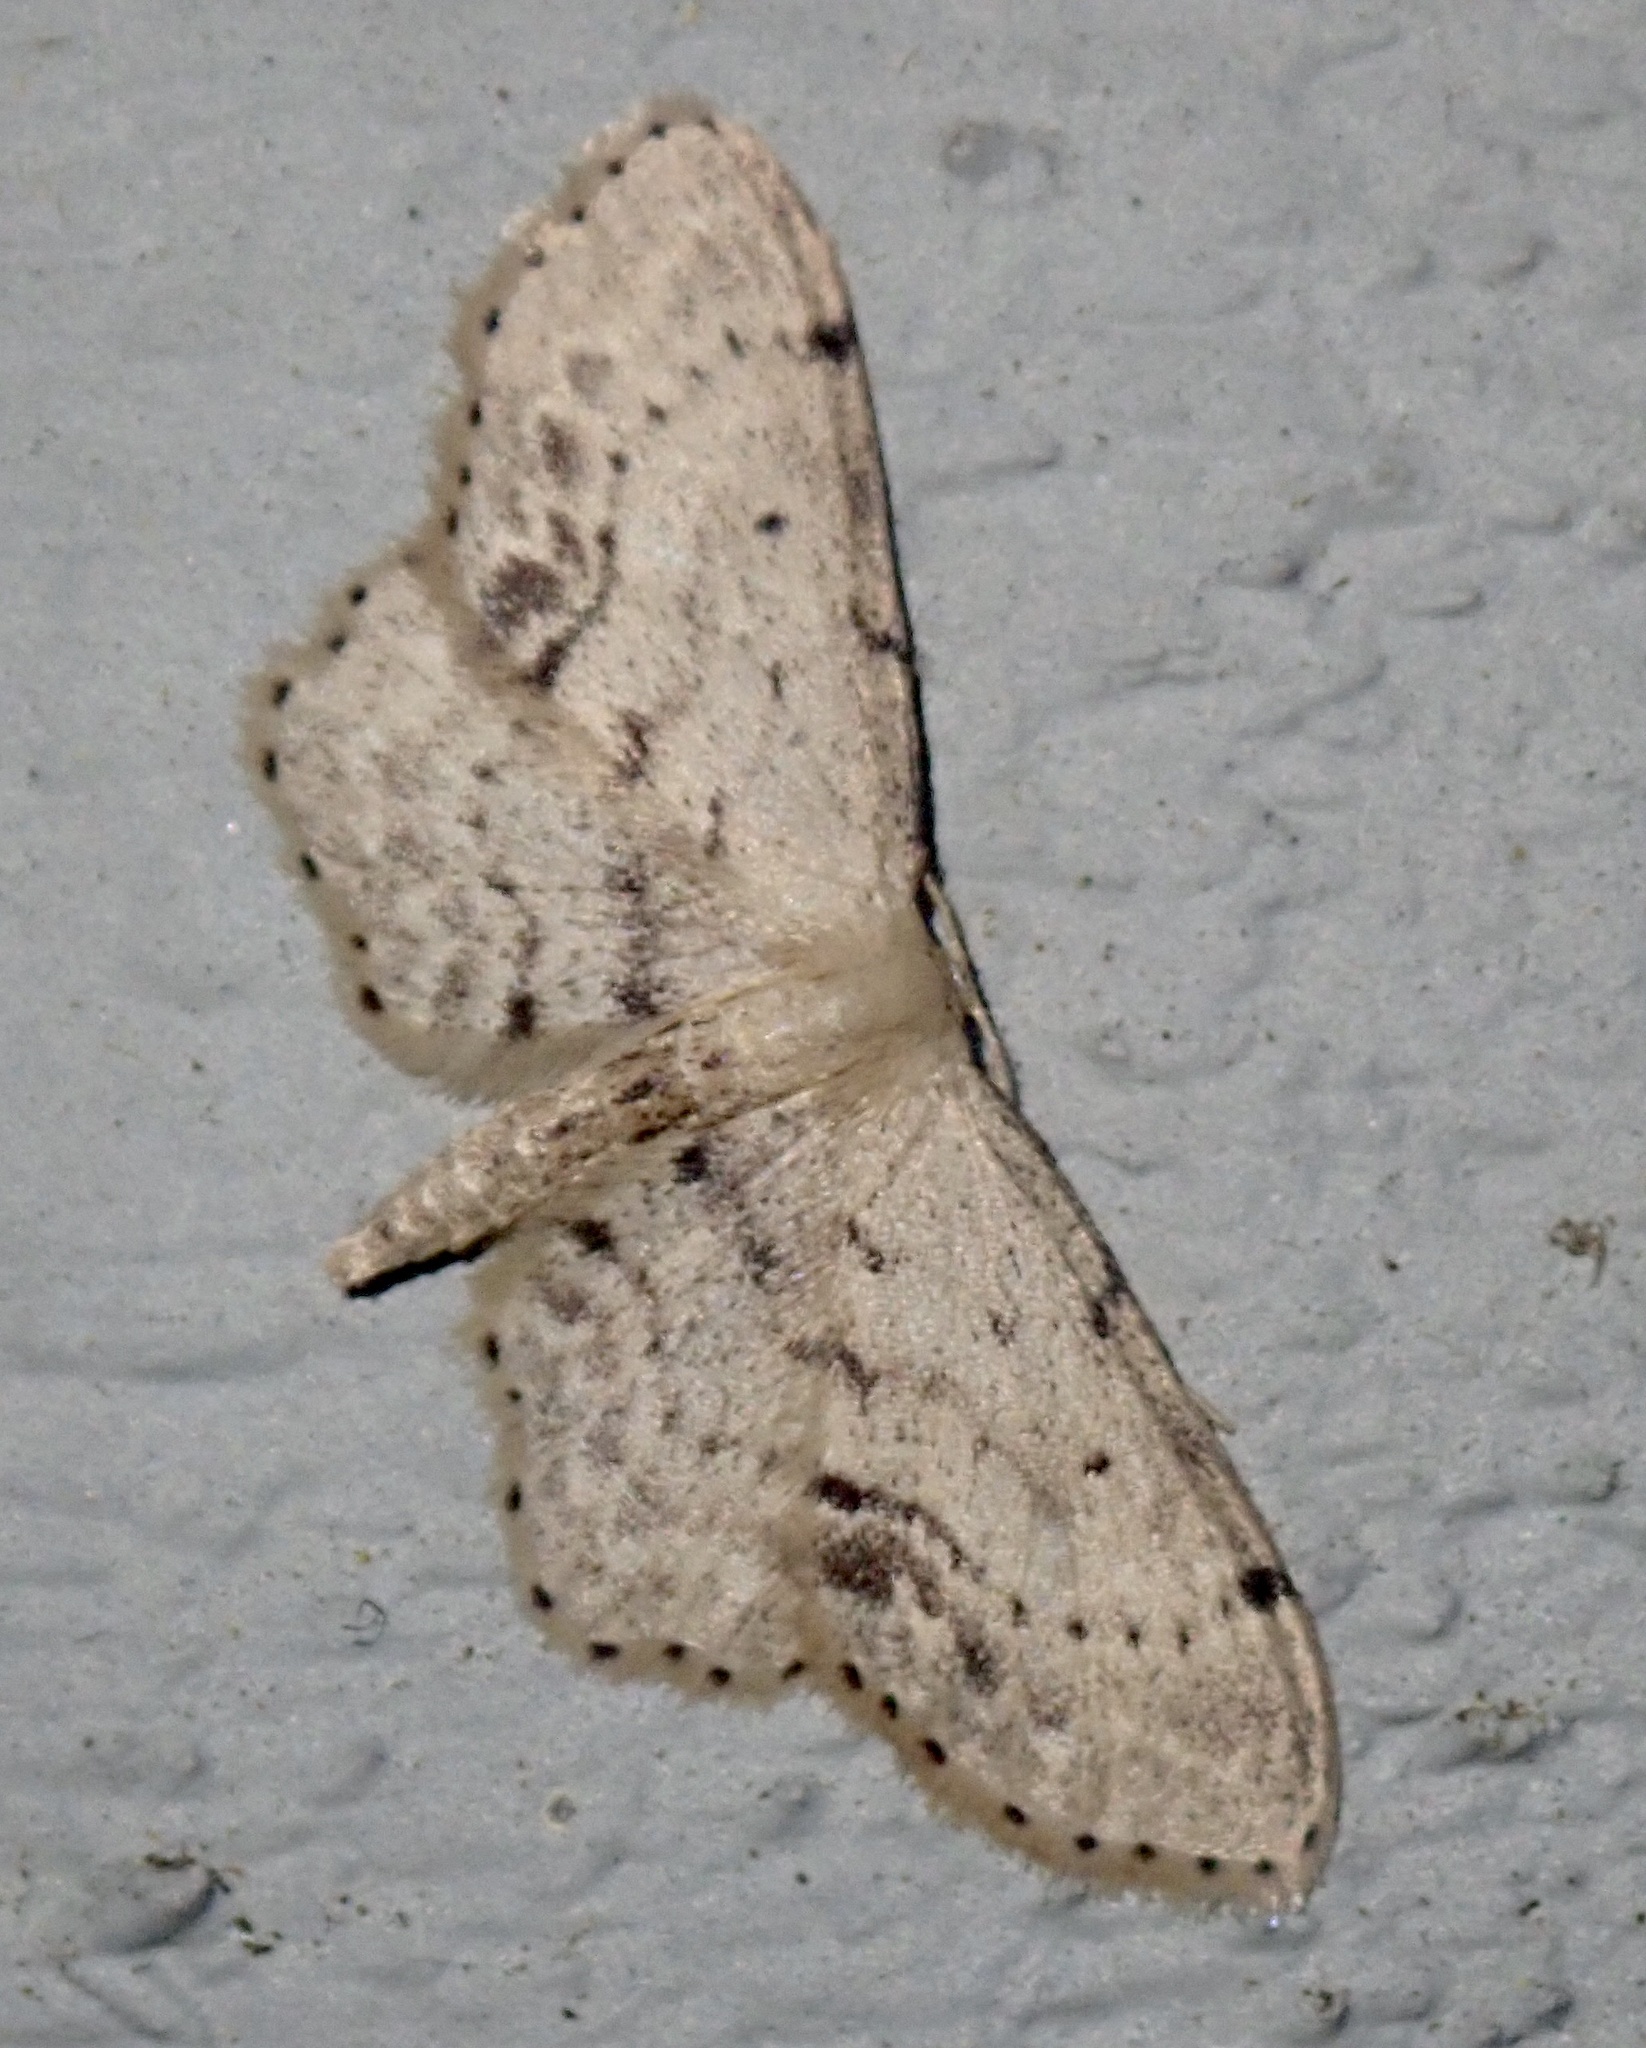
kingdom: Animalia
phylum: Arthropoda
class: Insecta
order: Lepidoptera
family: Geometridae
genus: Idaea
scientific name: Idaea dimidiata
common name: Single-dotted wave
